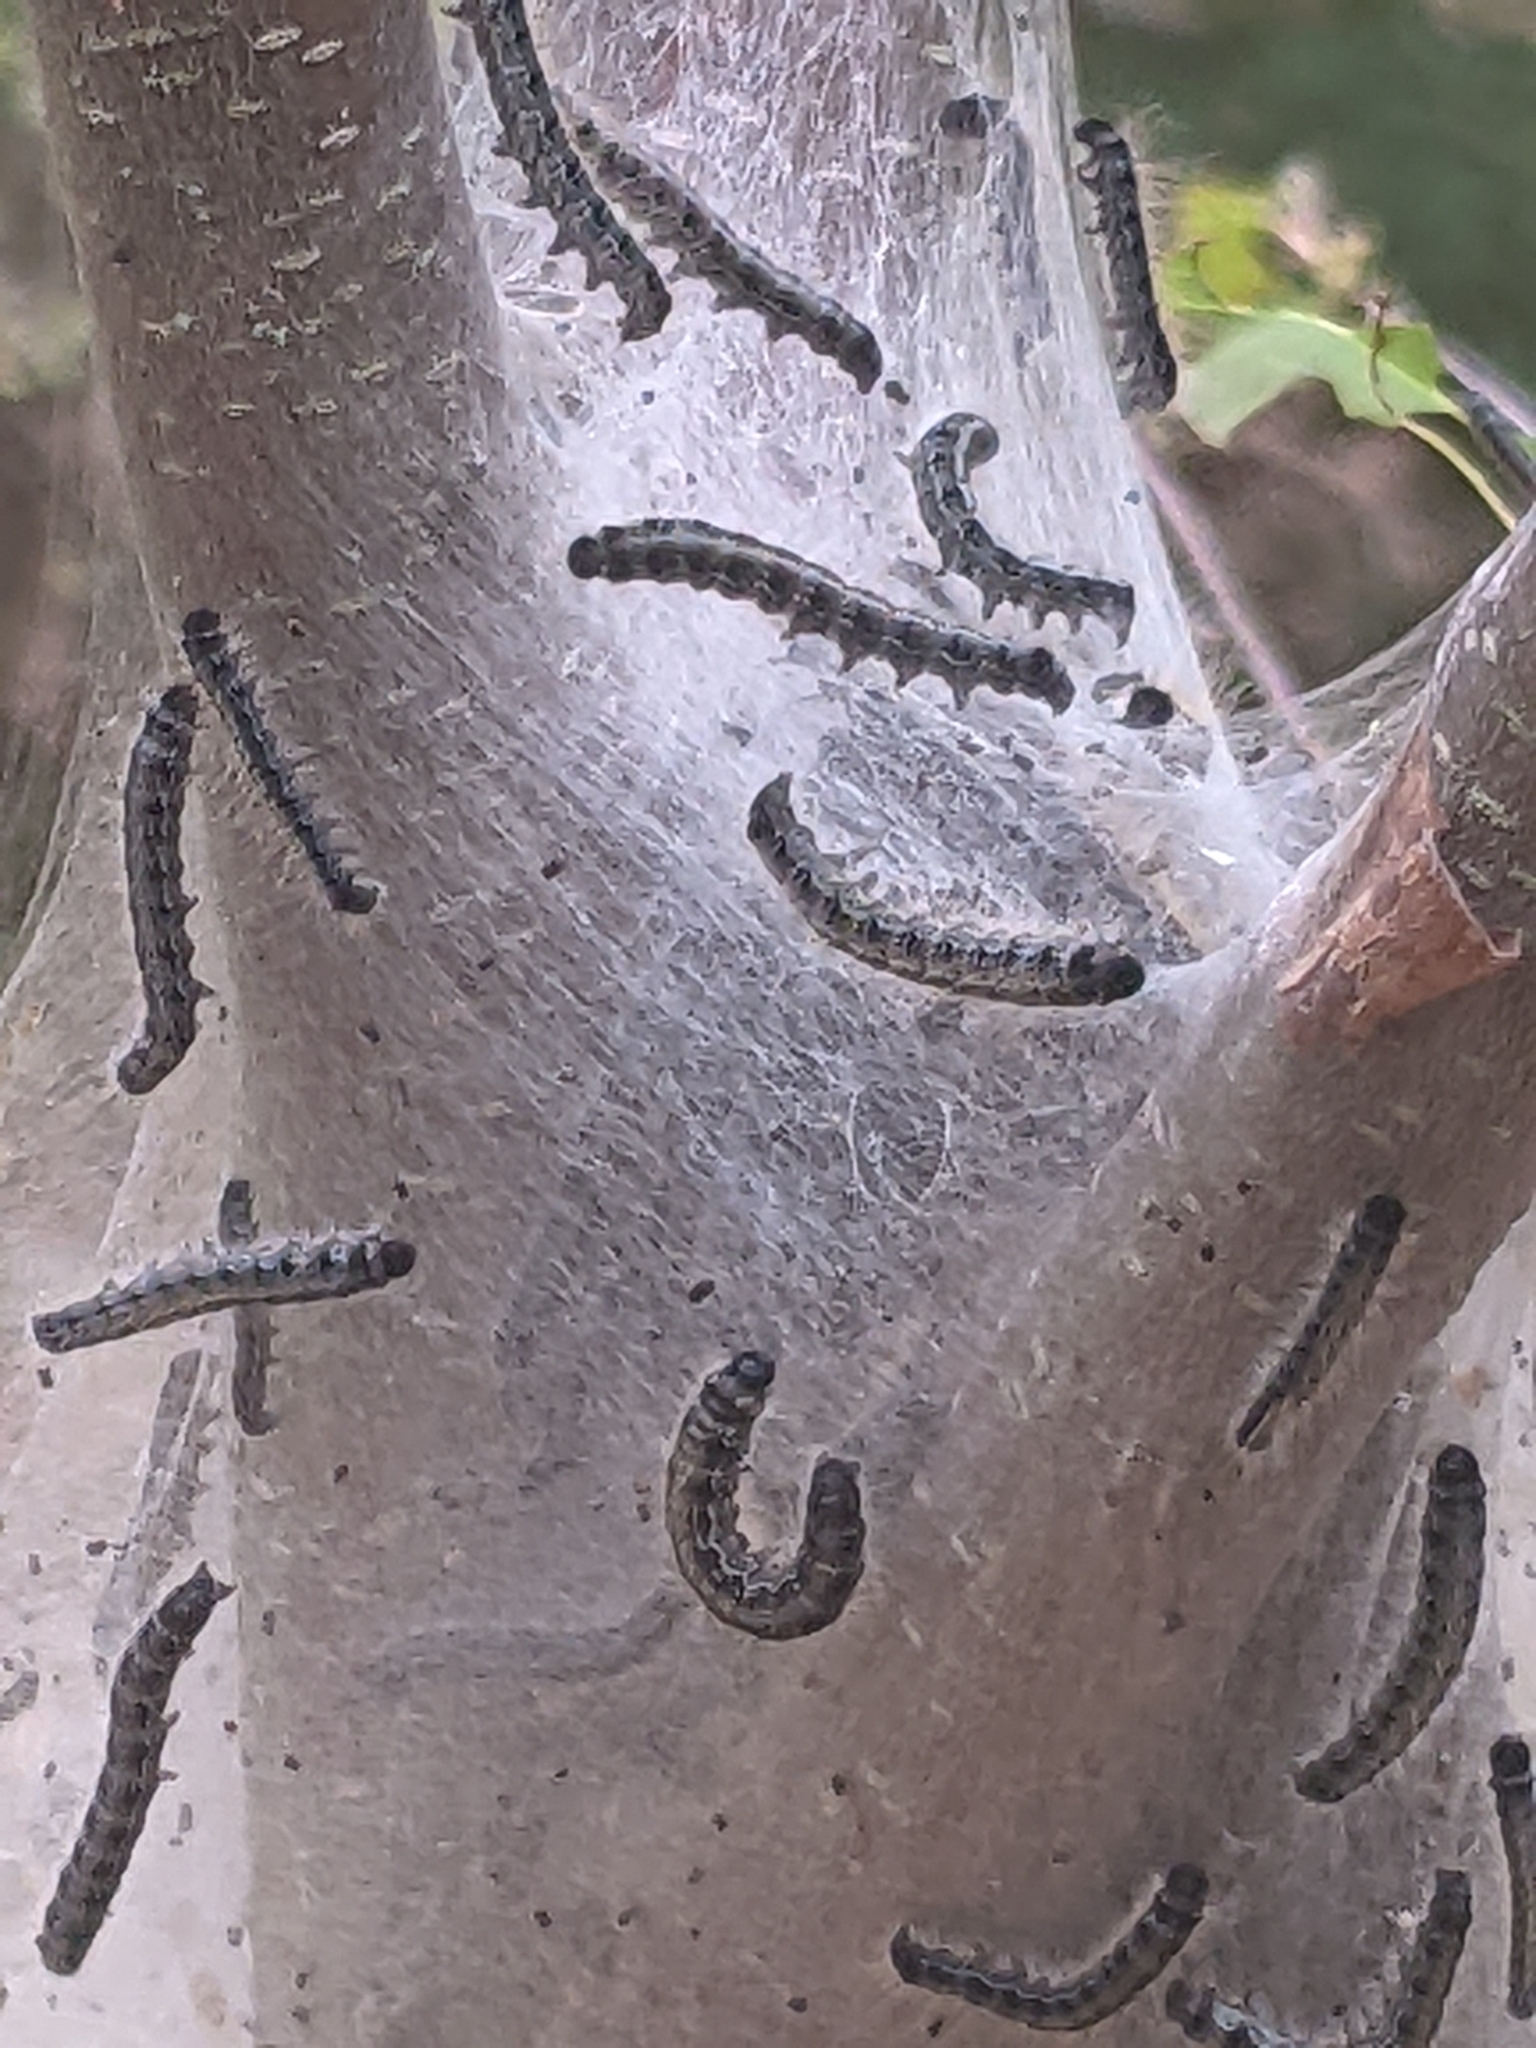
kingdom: Animalia
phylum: Arthropoda
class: Insecta
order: Lepidoptera
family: Lasiocampidae
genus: Malacosoma
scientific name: Malacosoma americana
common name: Eastern tent caterpillar moth
